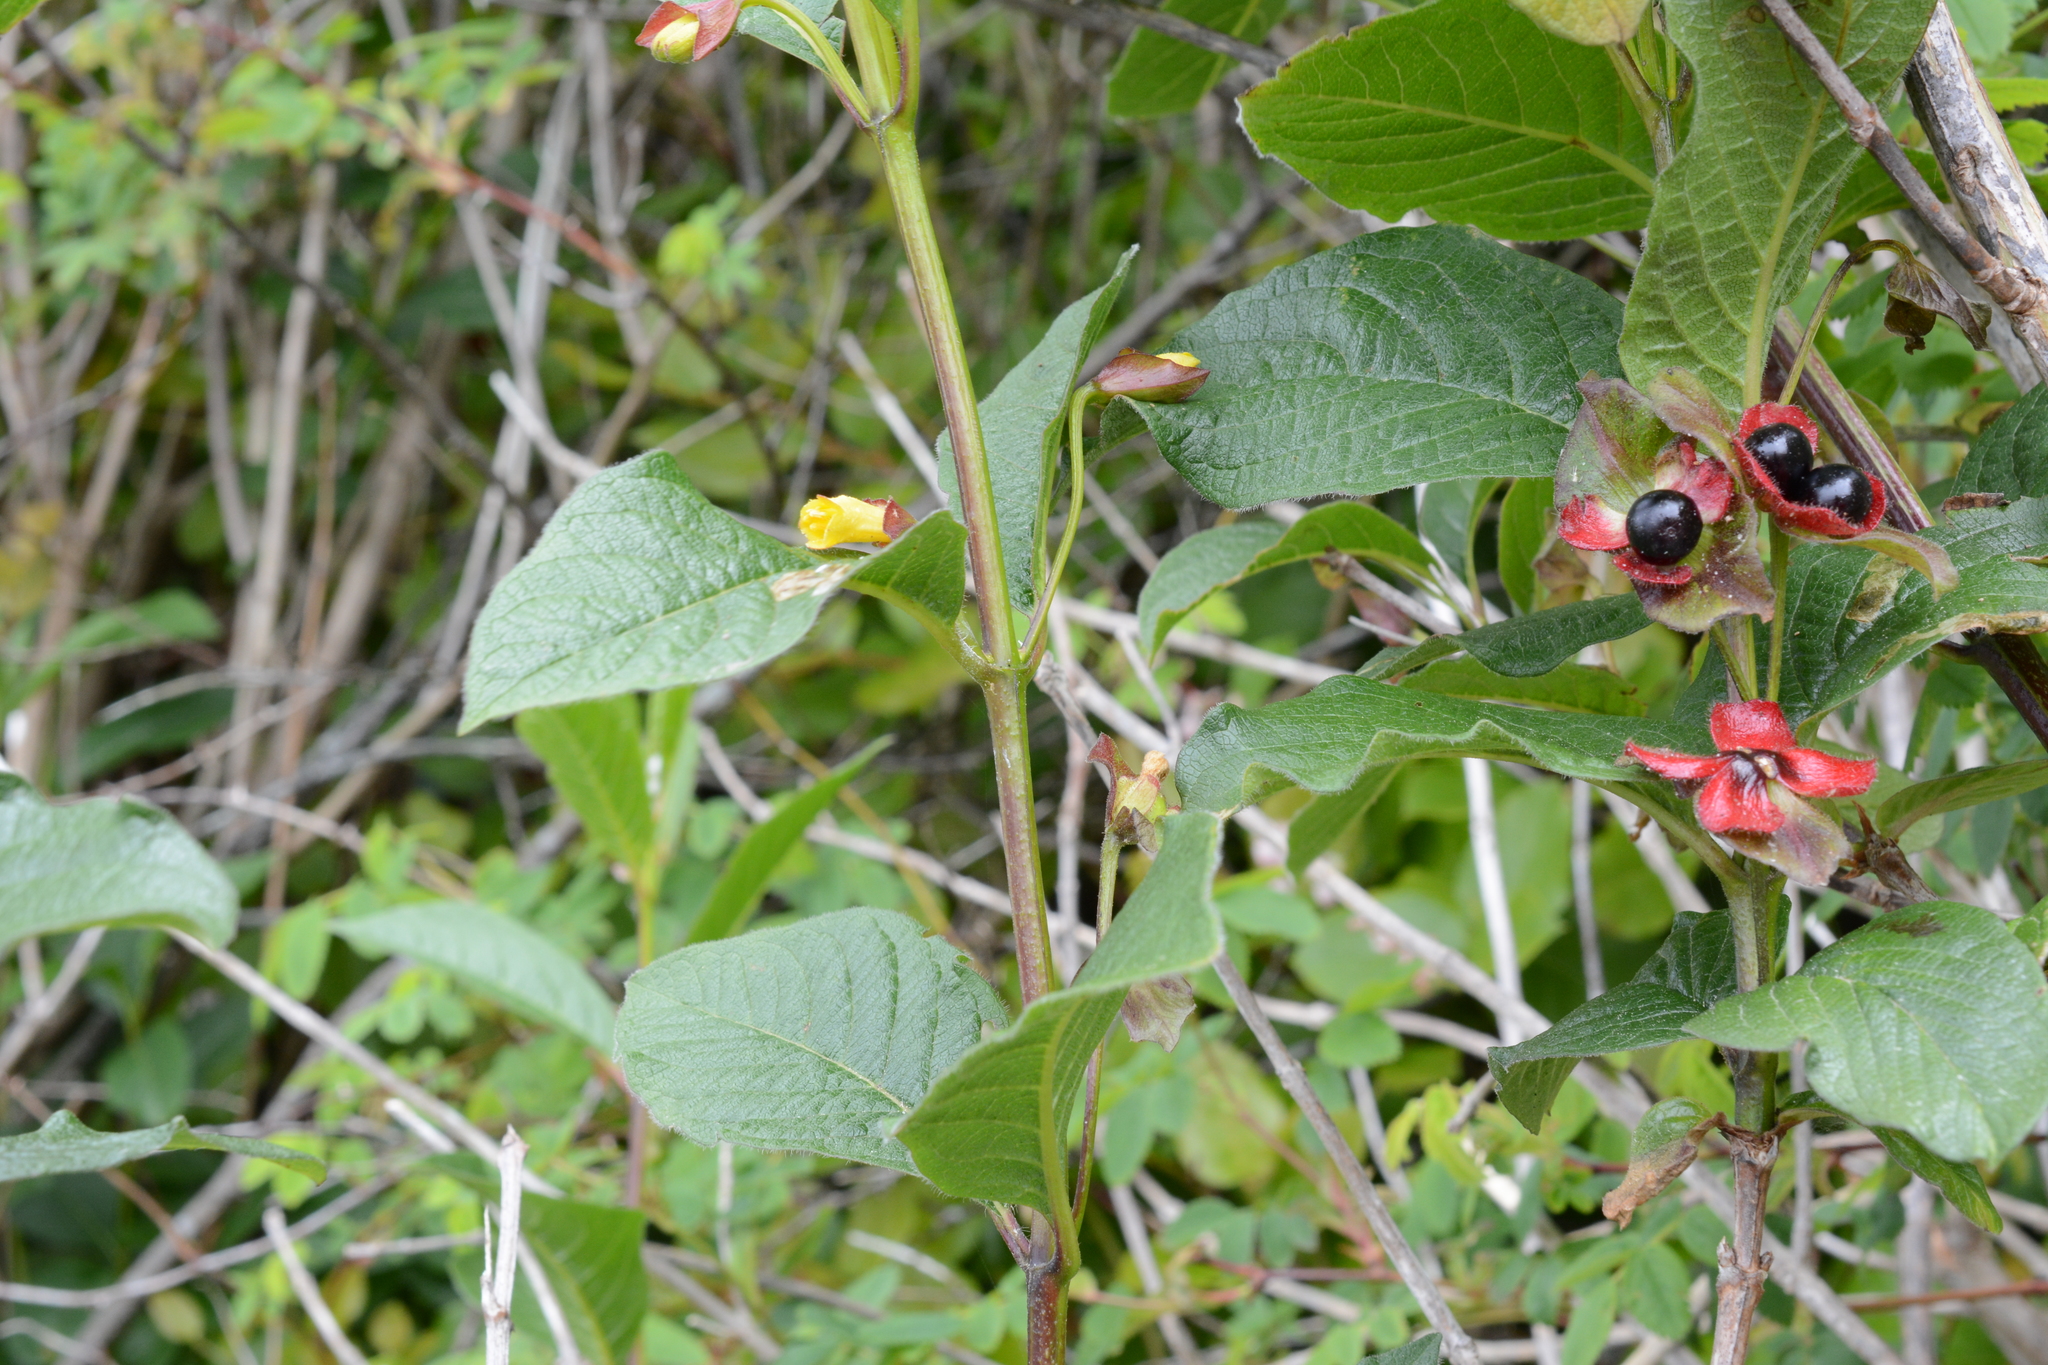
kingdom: Plantae
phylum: Tracheophyta
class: Magnoliopsida
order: Dipsacales
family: Caprifoliaceae
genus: Lonicera
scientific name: Lonicera involucrata
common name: Californian honeysuckle
